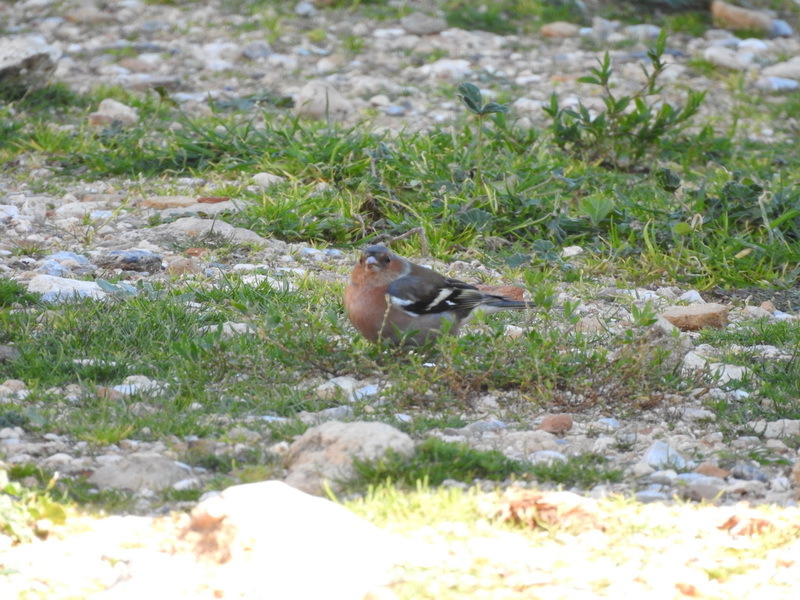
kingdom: Animalia
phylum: Chordata
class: Aves
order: Passeriformes
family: Fringillidae
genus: Fringilla
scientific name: Fringilla coelebs
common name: Common chaffinch
